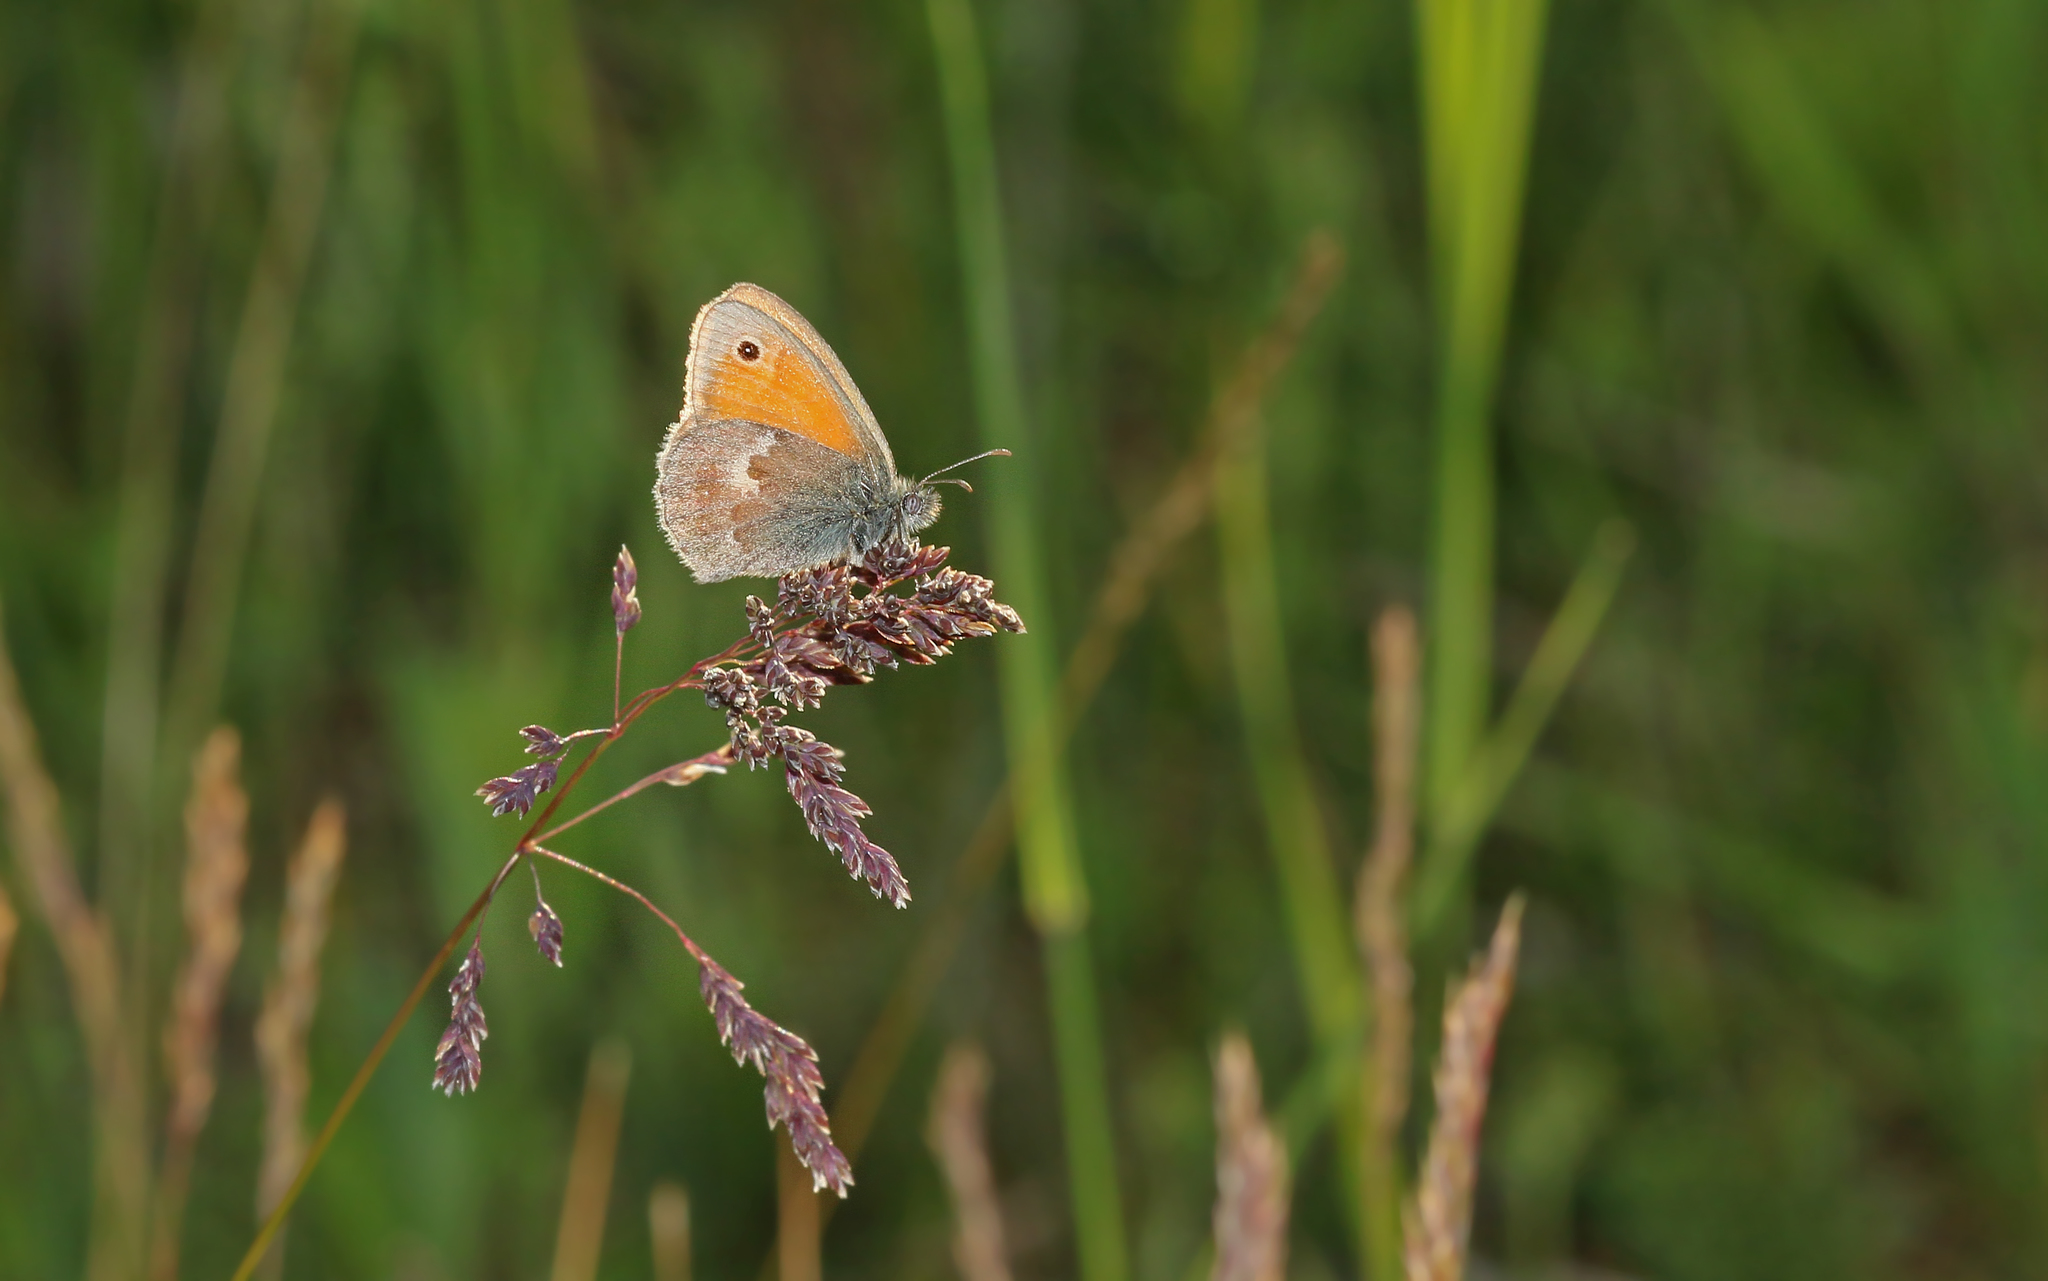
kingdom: Animalia
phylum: Arthropoda
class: Insecta
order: Lepidoptera
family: Nymphalidae
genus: Coenonympha
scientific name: Coenonympha pamphilus
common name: Small heath
